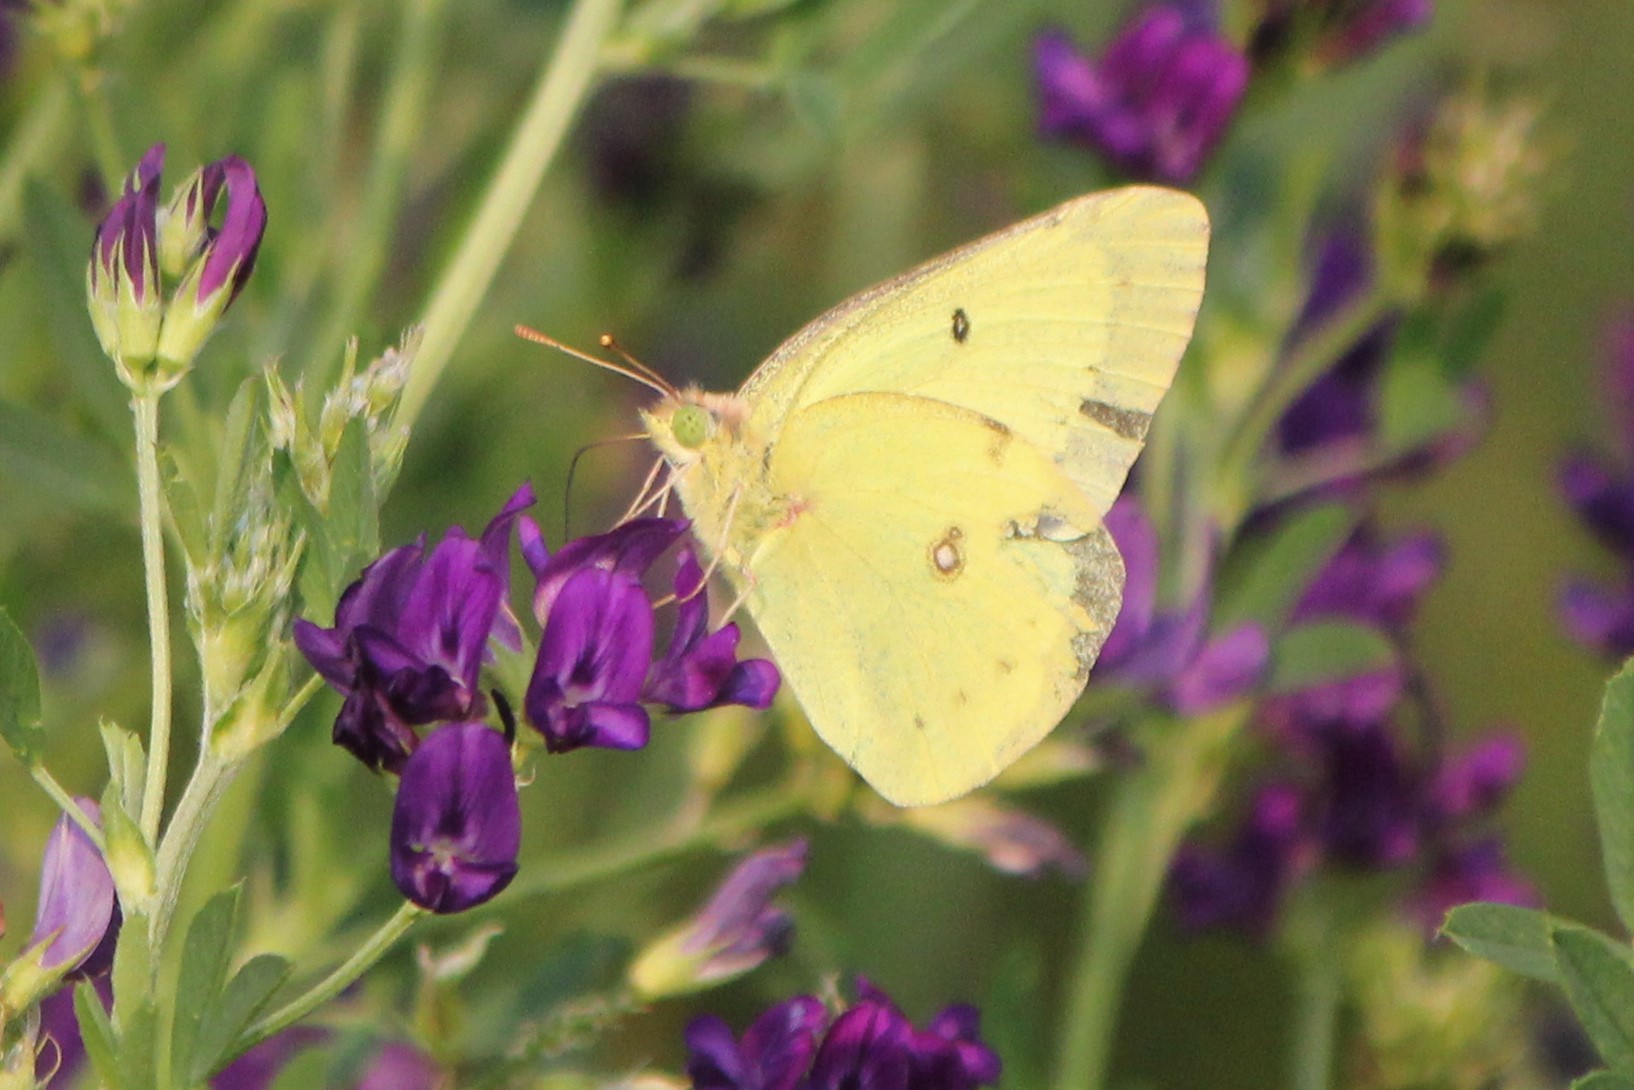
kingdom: Animalia
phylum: Arthropoda
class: Insecta
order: Lepidoptera
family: Pieridae
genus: Colias
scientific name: Colias philodice
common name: Clouded sulphur
